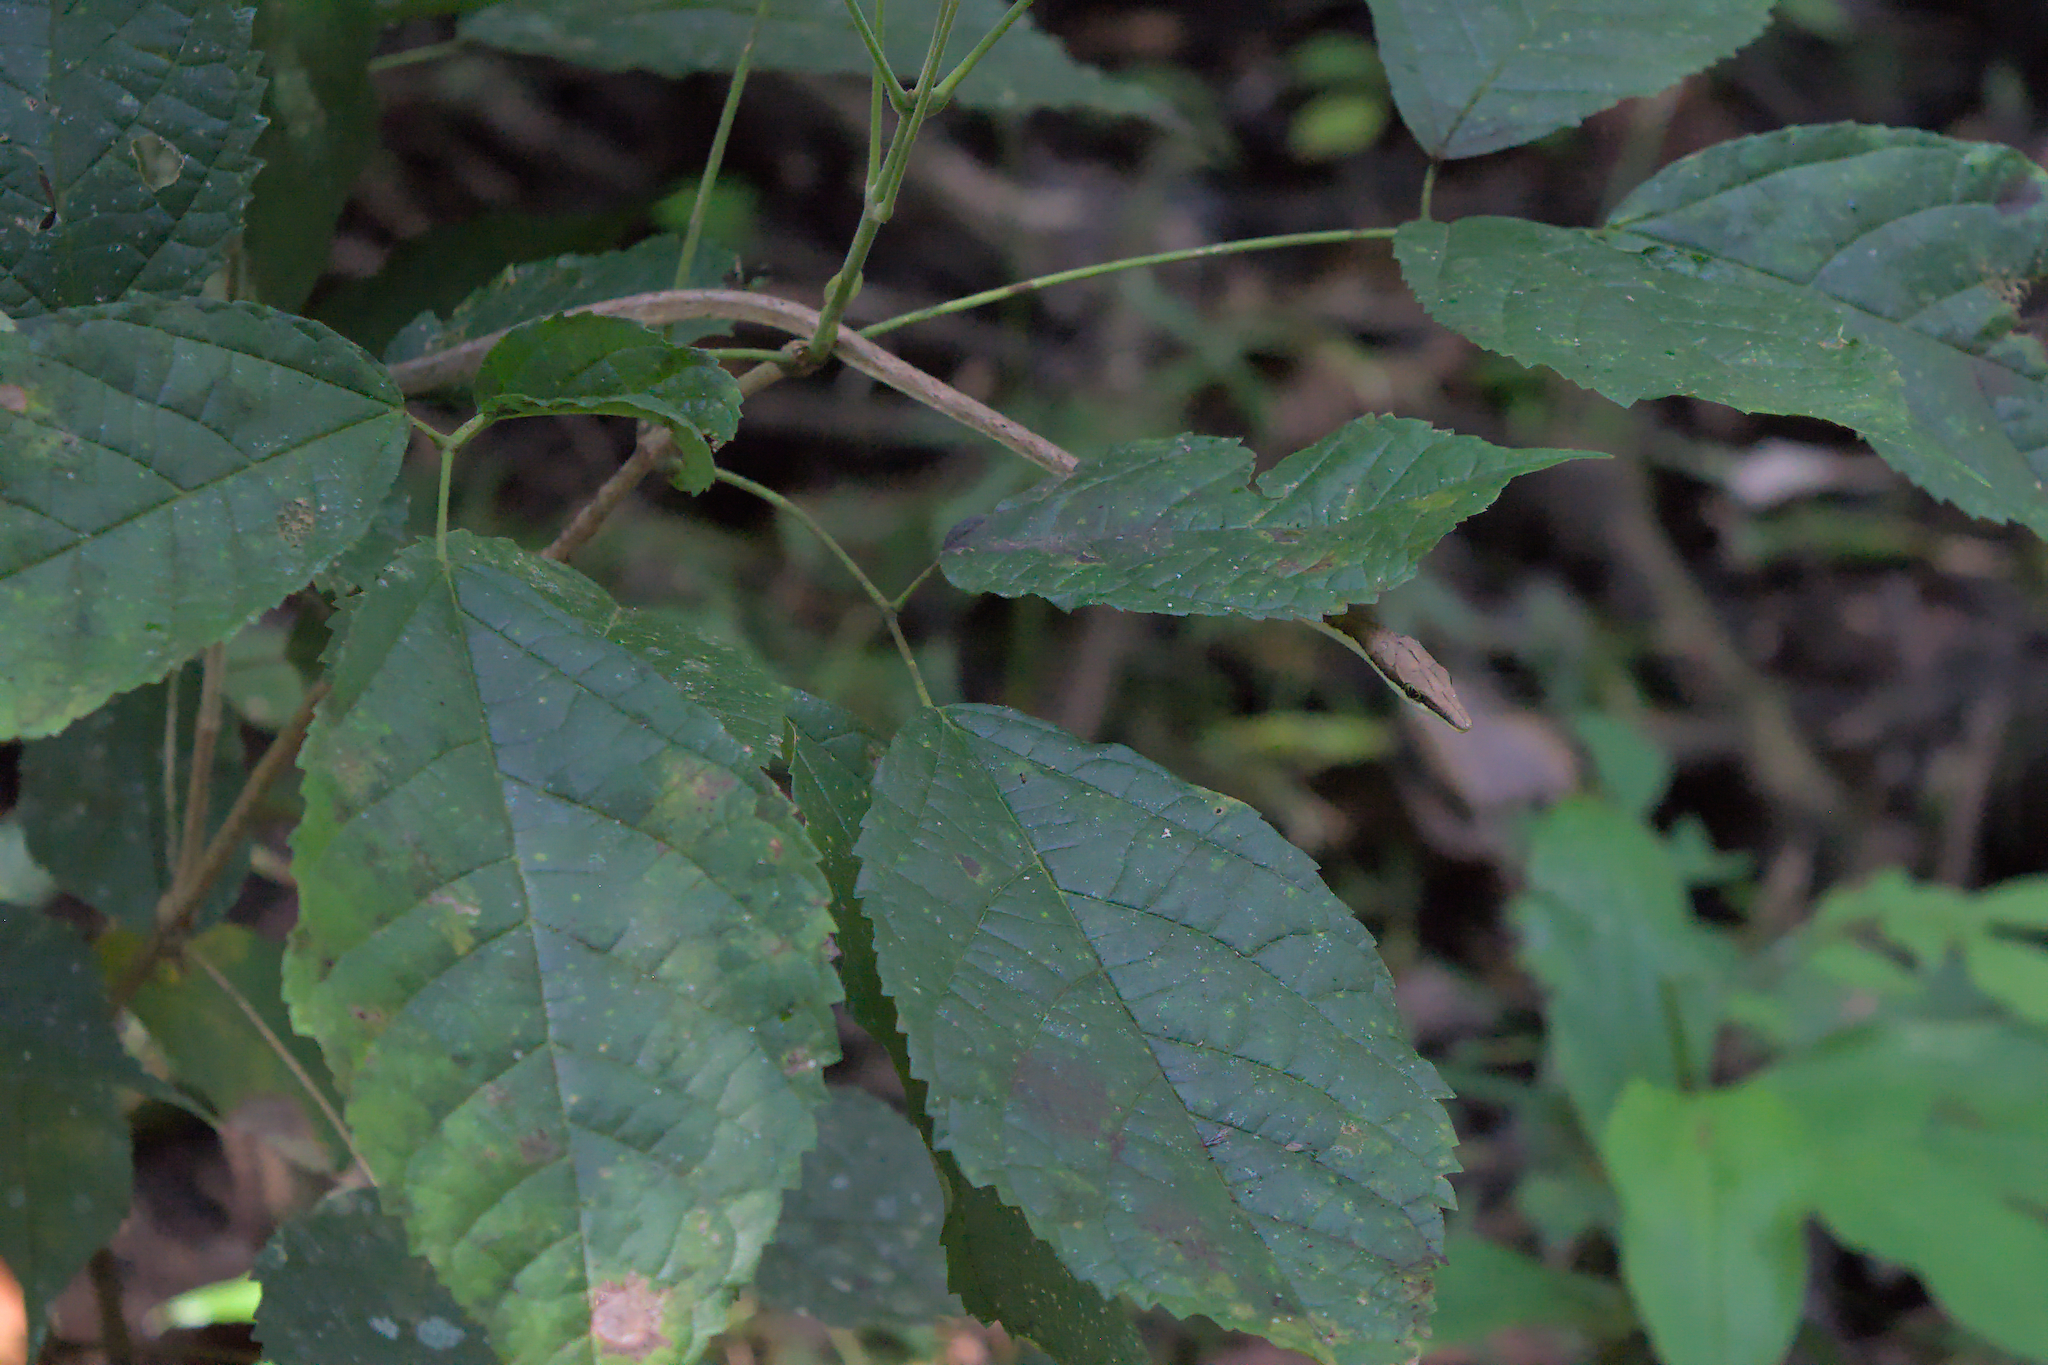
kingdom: Animalia
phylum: Chordata
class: Squamata
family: Colubridae
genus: Oxybelis
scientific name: Oxybelis vittatus
